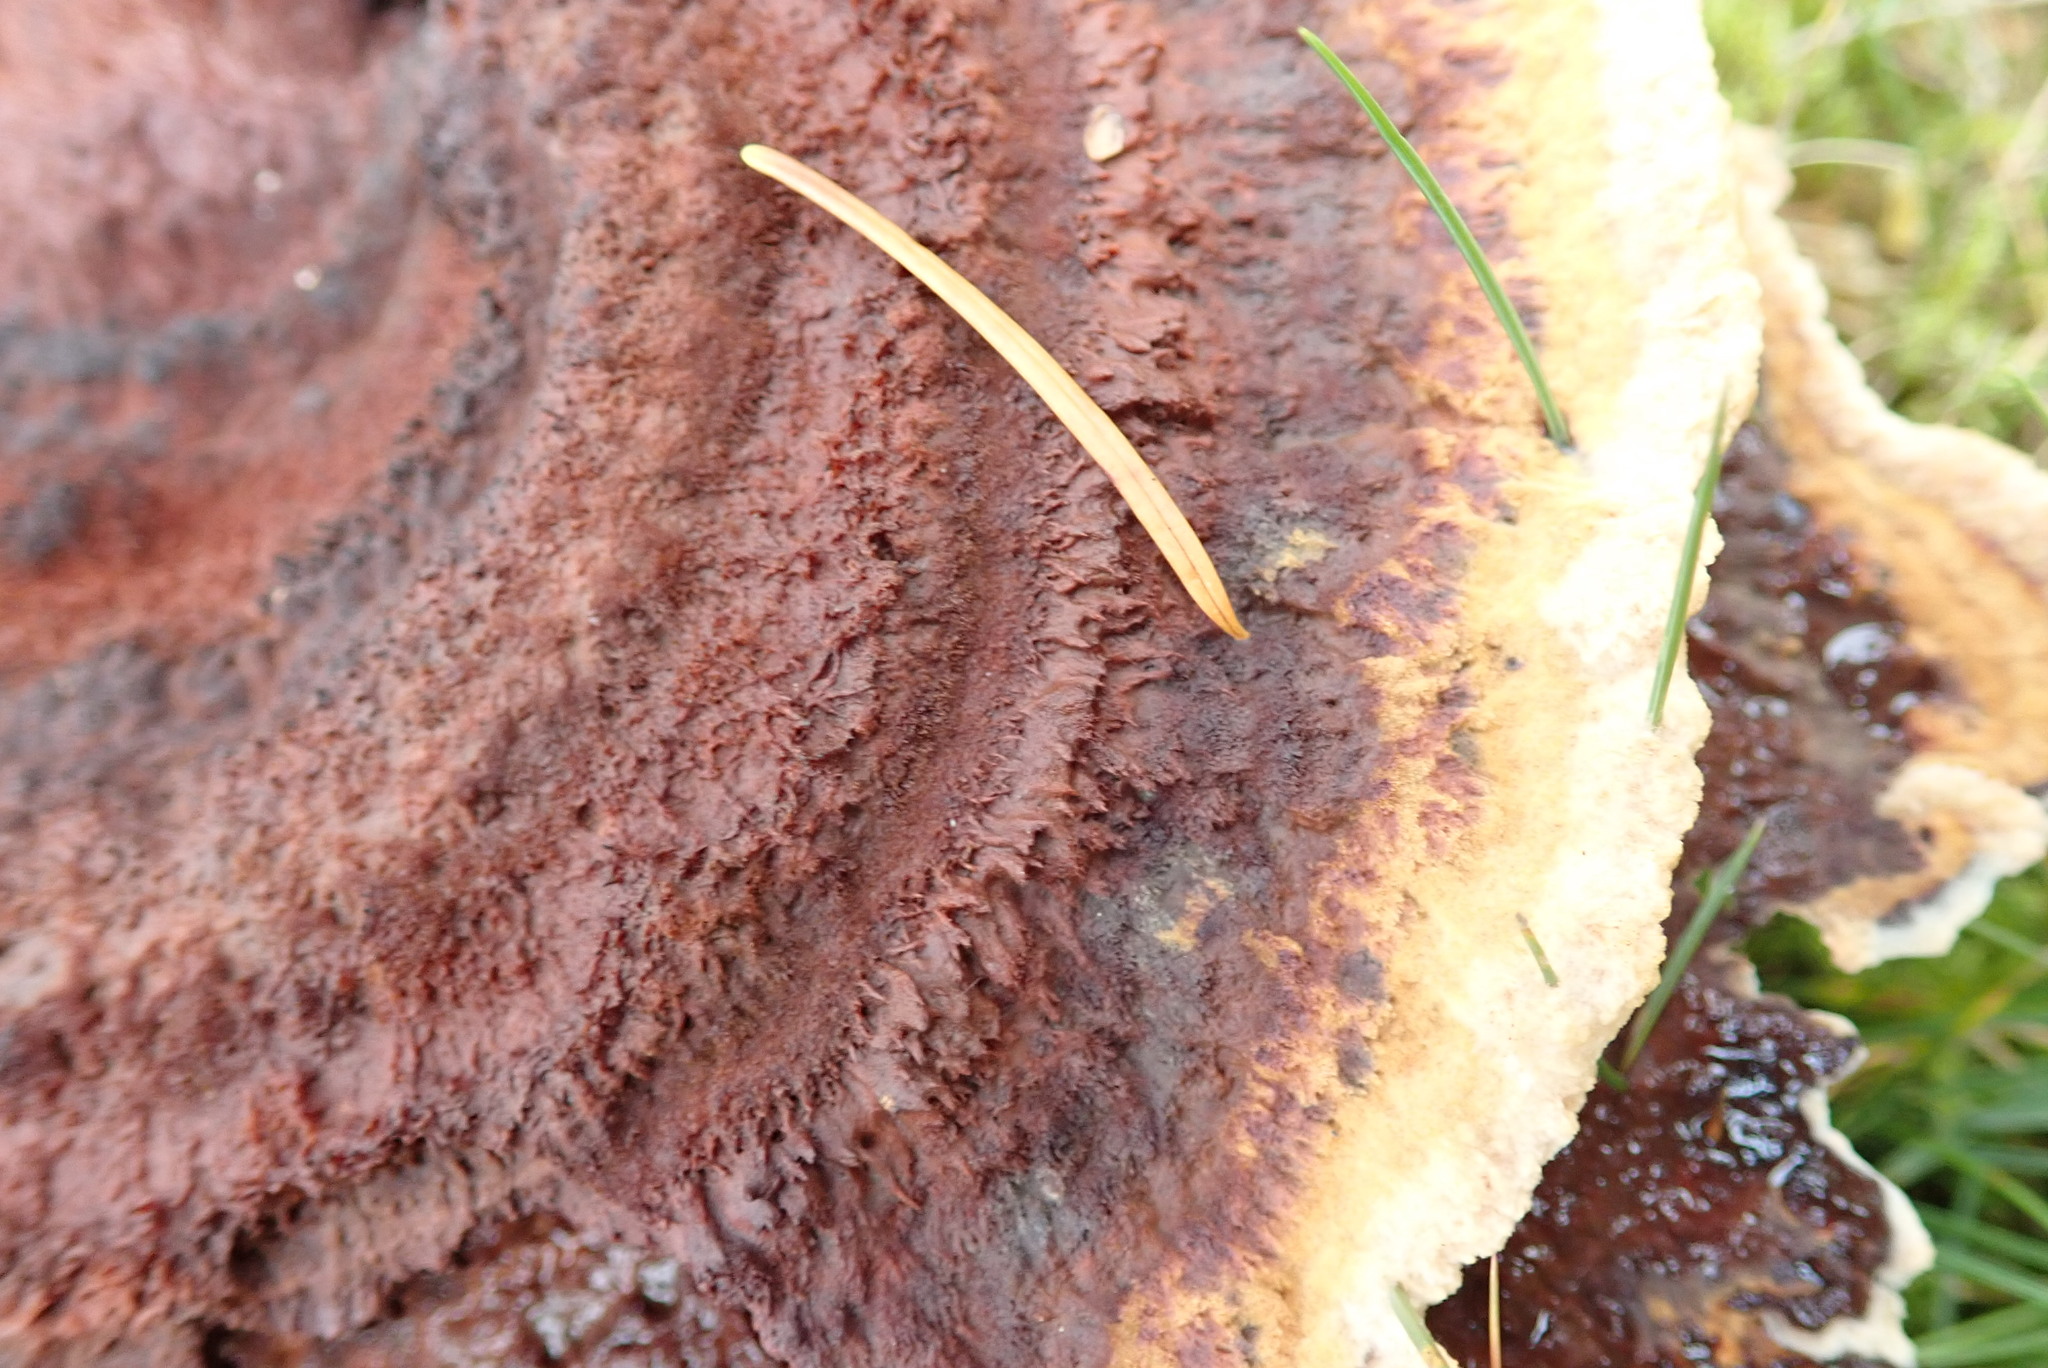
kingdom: Fungi
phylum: Basidiomycota
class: Agaricomycetes
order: Polyporales
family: Laetiporaceae
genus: Phaeolus
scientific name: Phaeolus schweinitzii
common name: Dyer's mazegill
